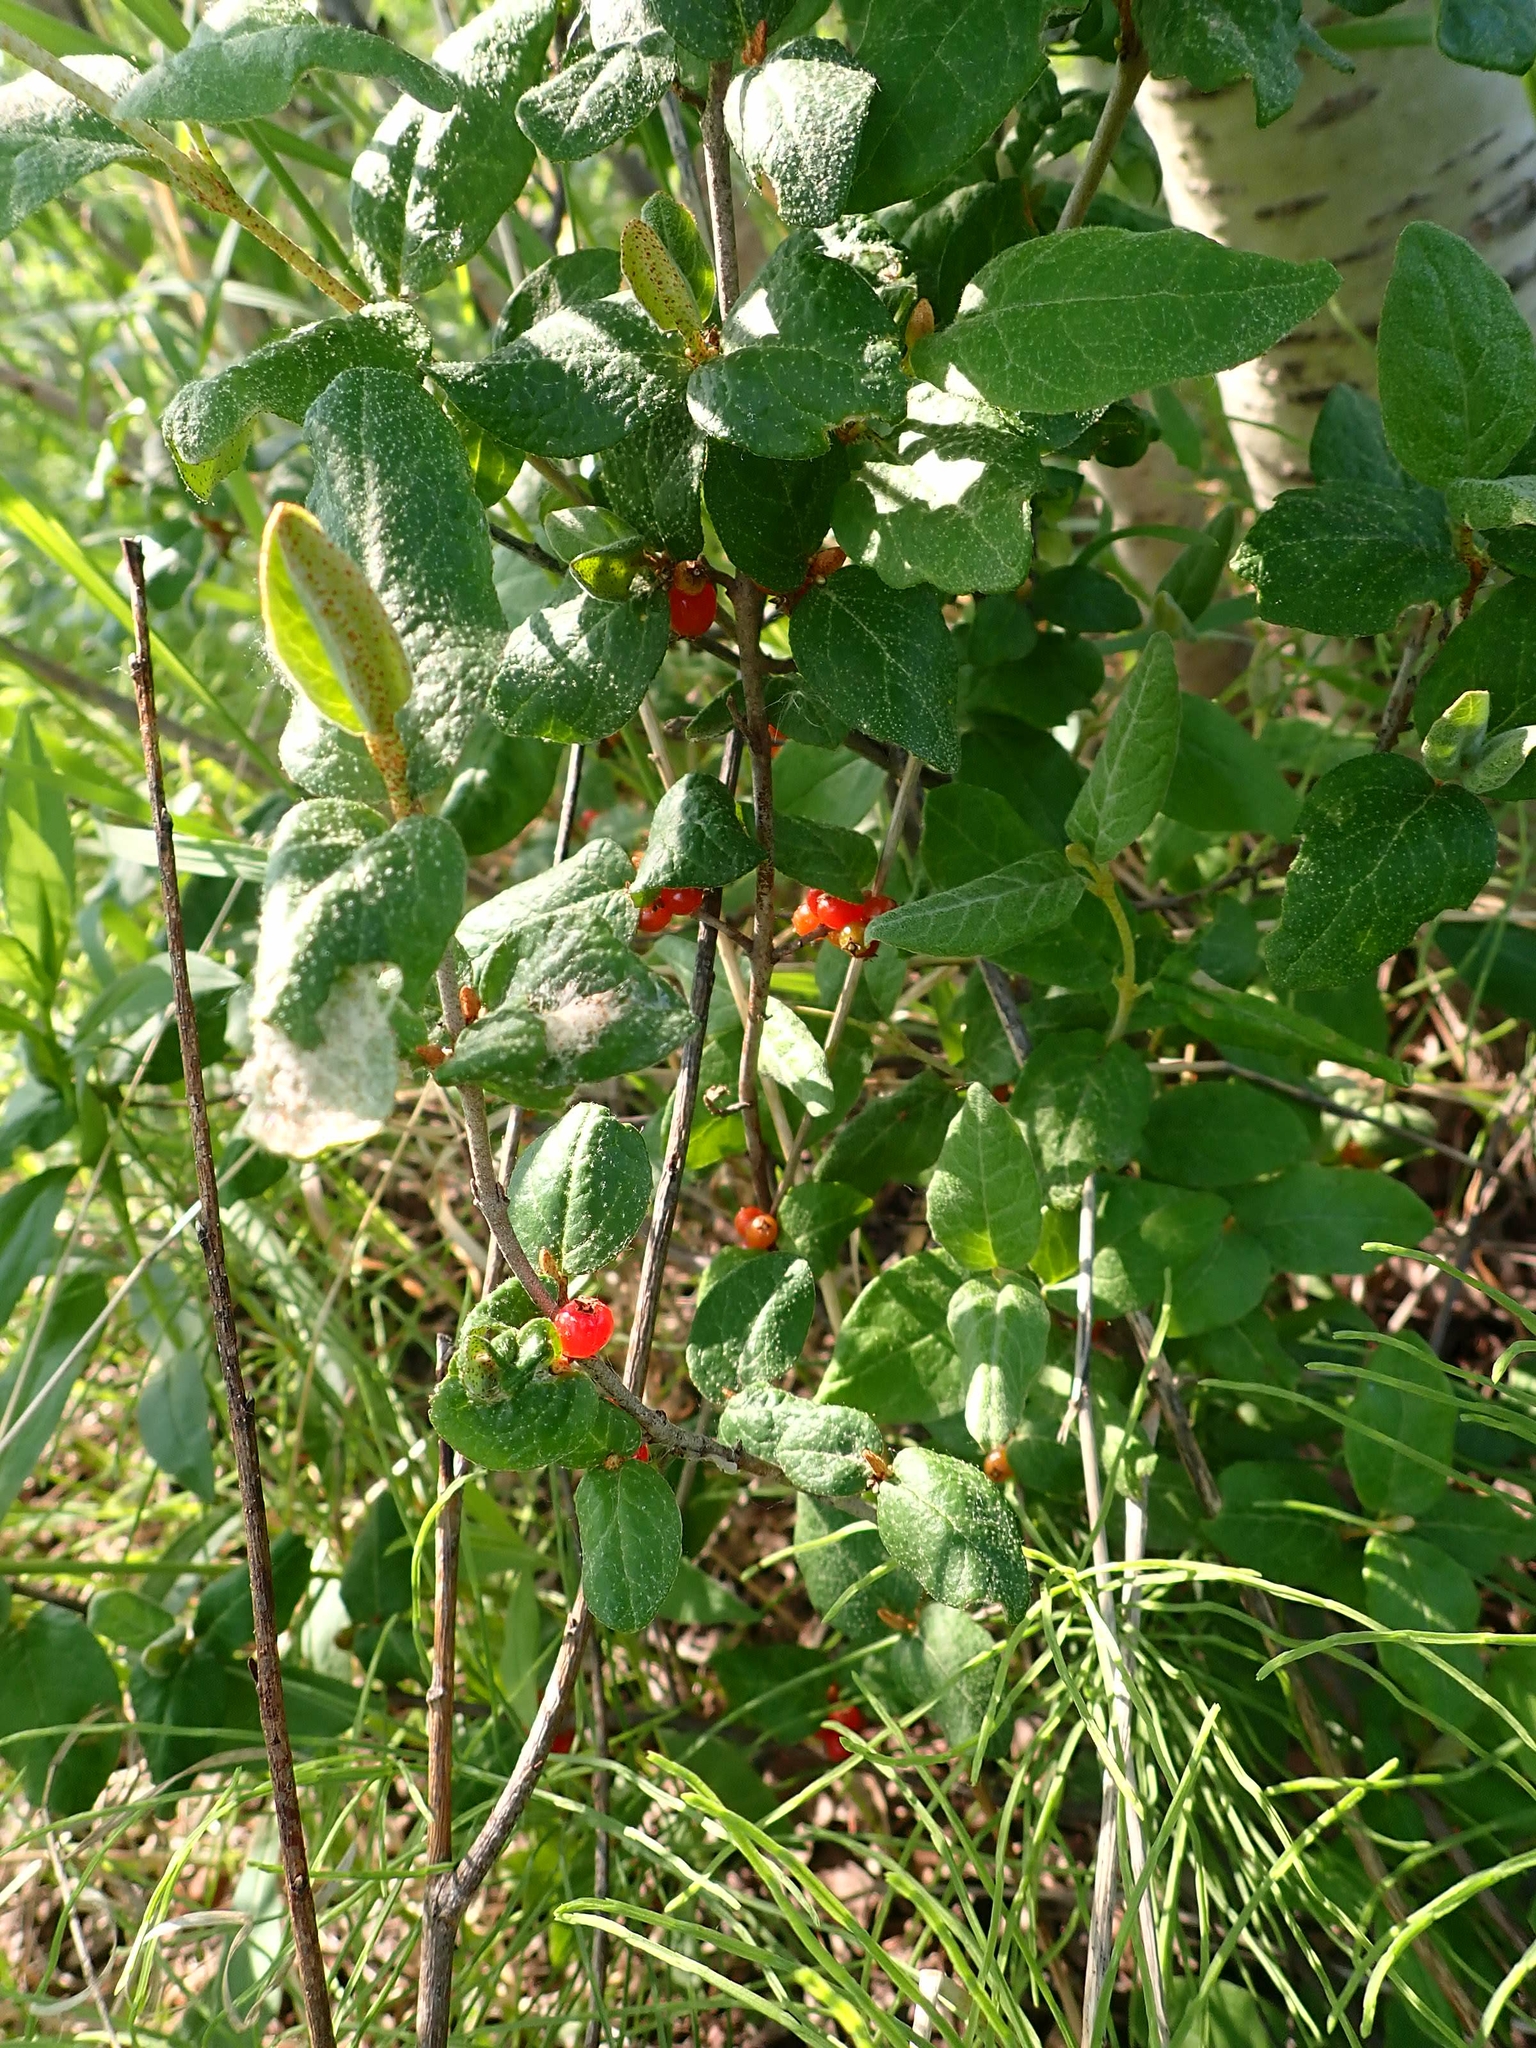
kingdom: Plantae
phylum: Tracheophyta
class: Magnoliopsida
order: Rosales
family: Elaeagnaceae
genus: Shepherdia
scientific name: Shepherdia canadensis
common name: Soapberry
